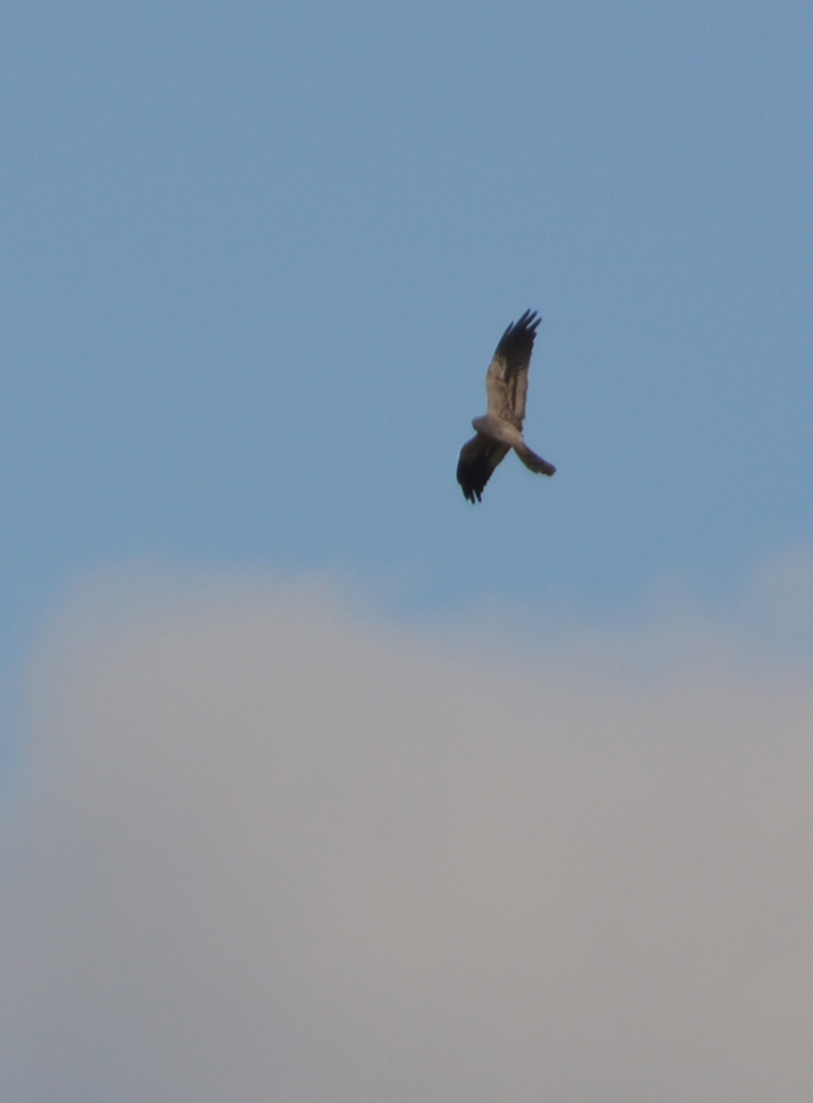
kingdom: Animalia
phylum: Chordata
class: Aves
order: Accipitriformes
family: Accipitridae
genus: Circus
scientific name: Circus pygargus
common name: Montagu's harrier
